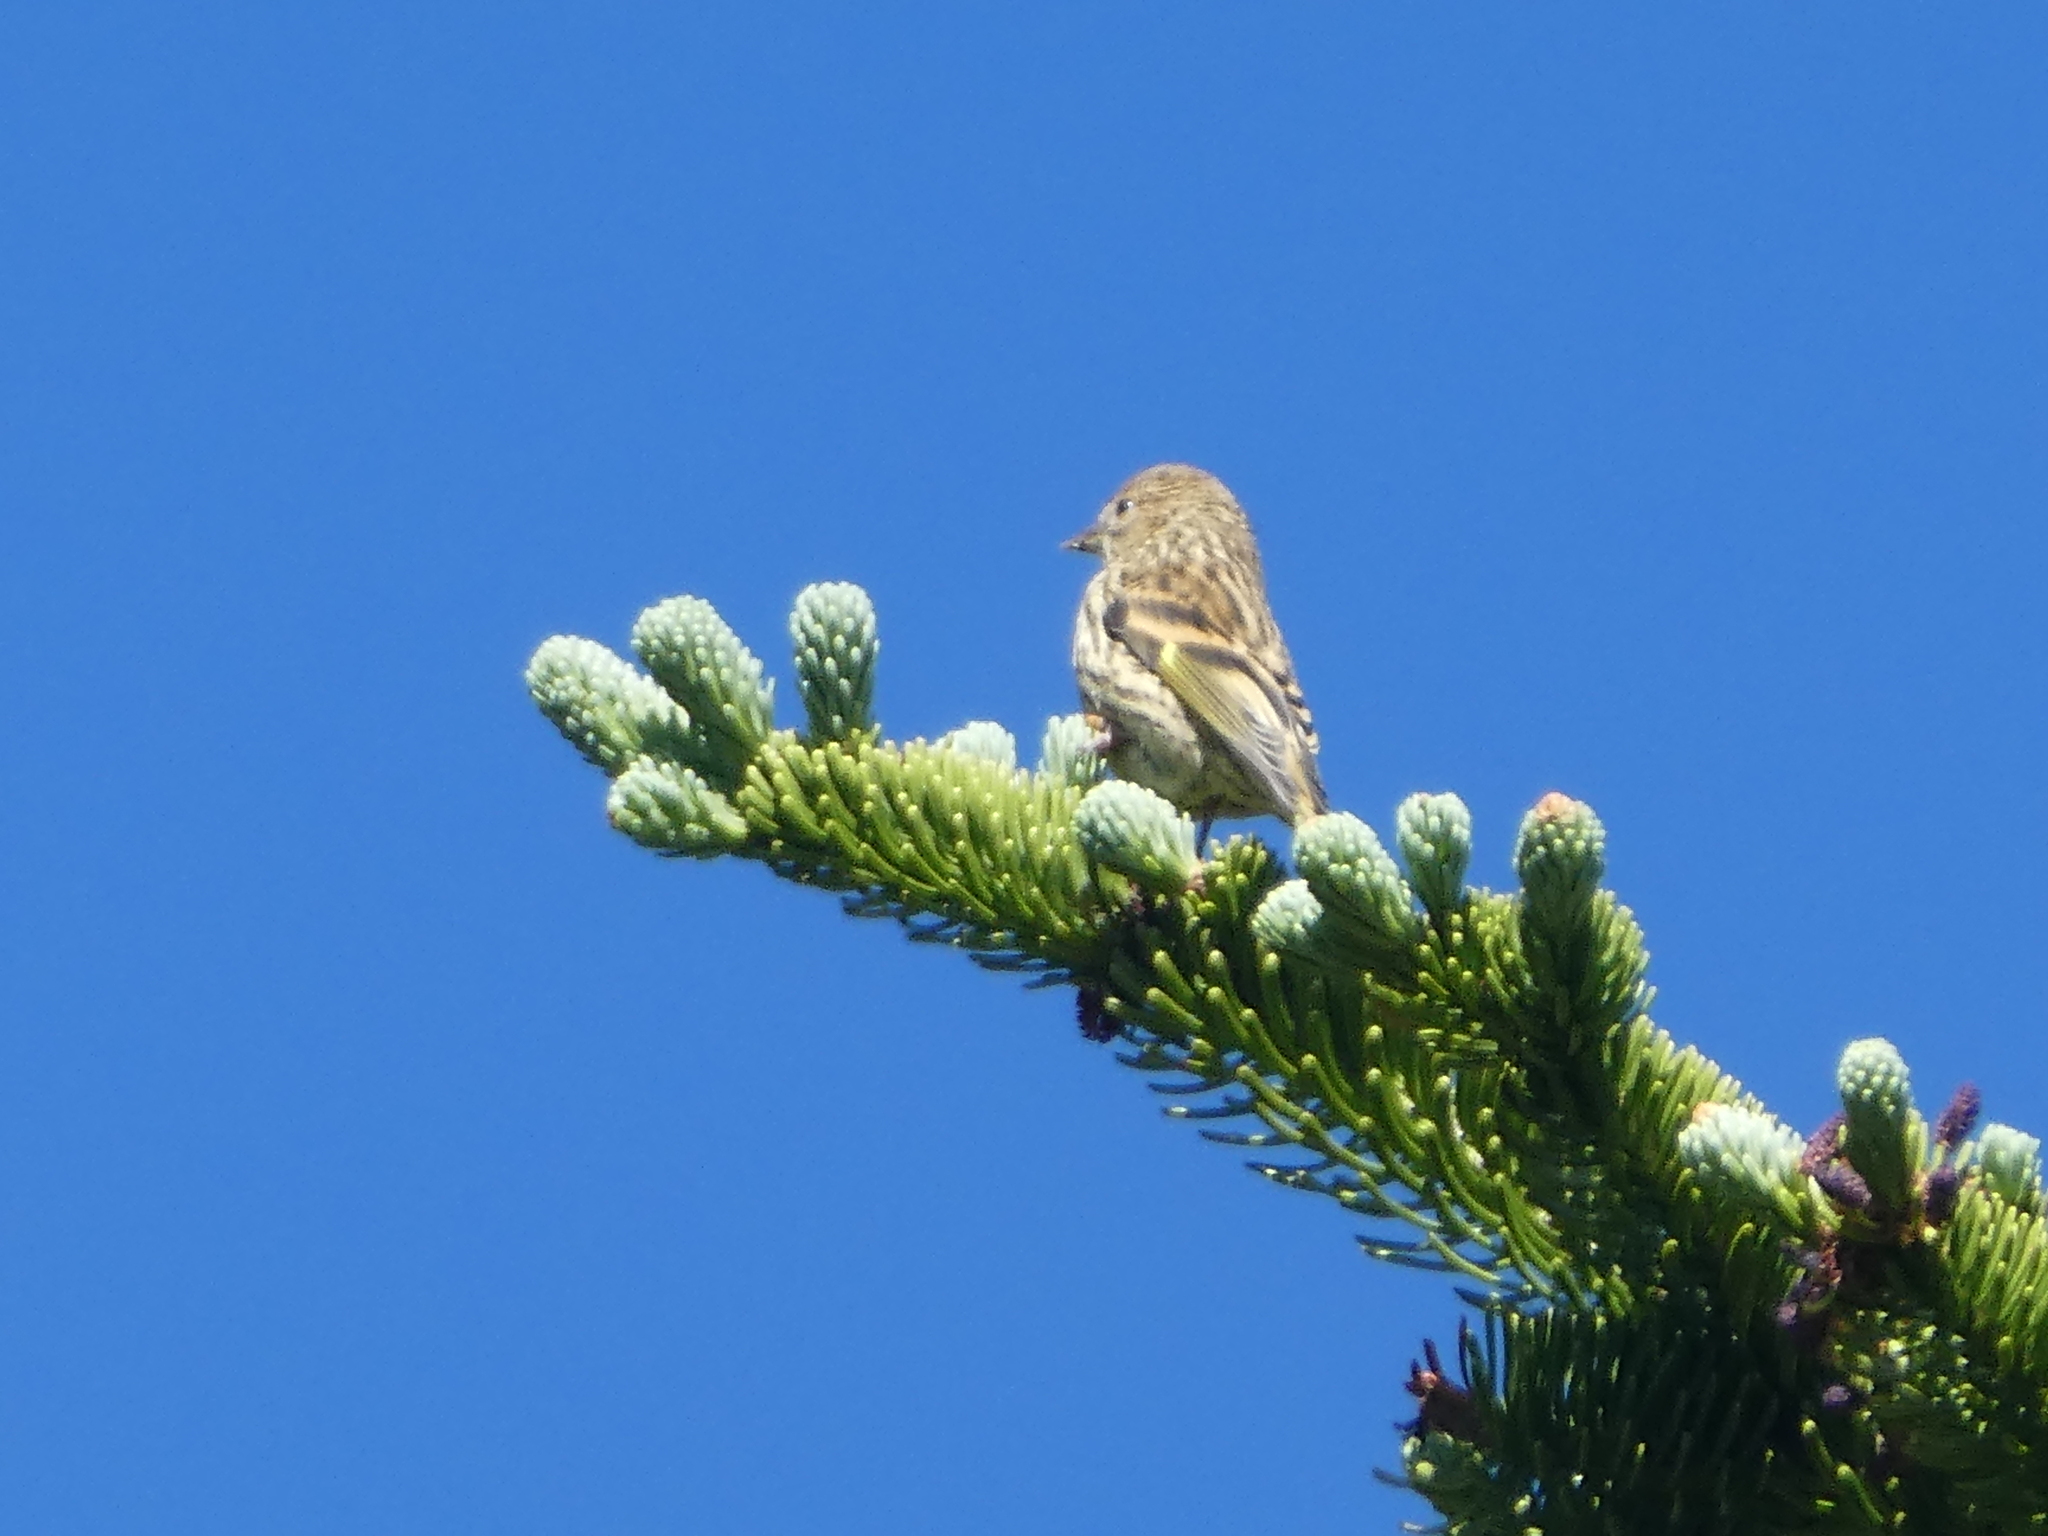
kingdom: Animalia
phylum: Chordata
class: Aves
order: Passeriformes
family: Fringillidae
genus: Spinus
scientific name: Spinus pinus
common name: Pine siskin
